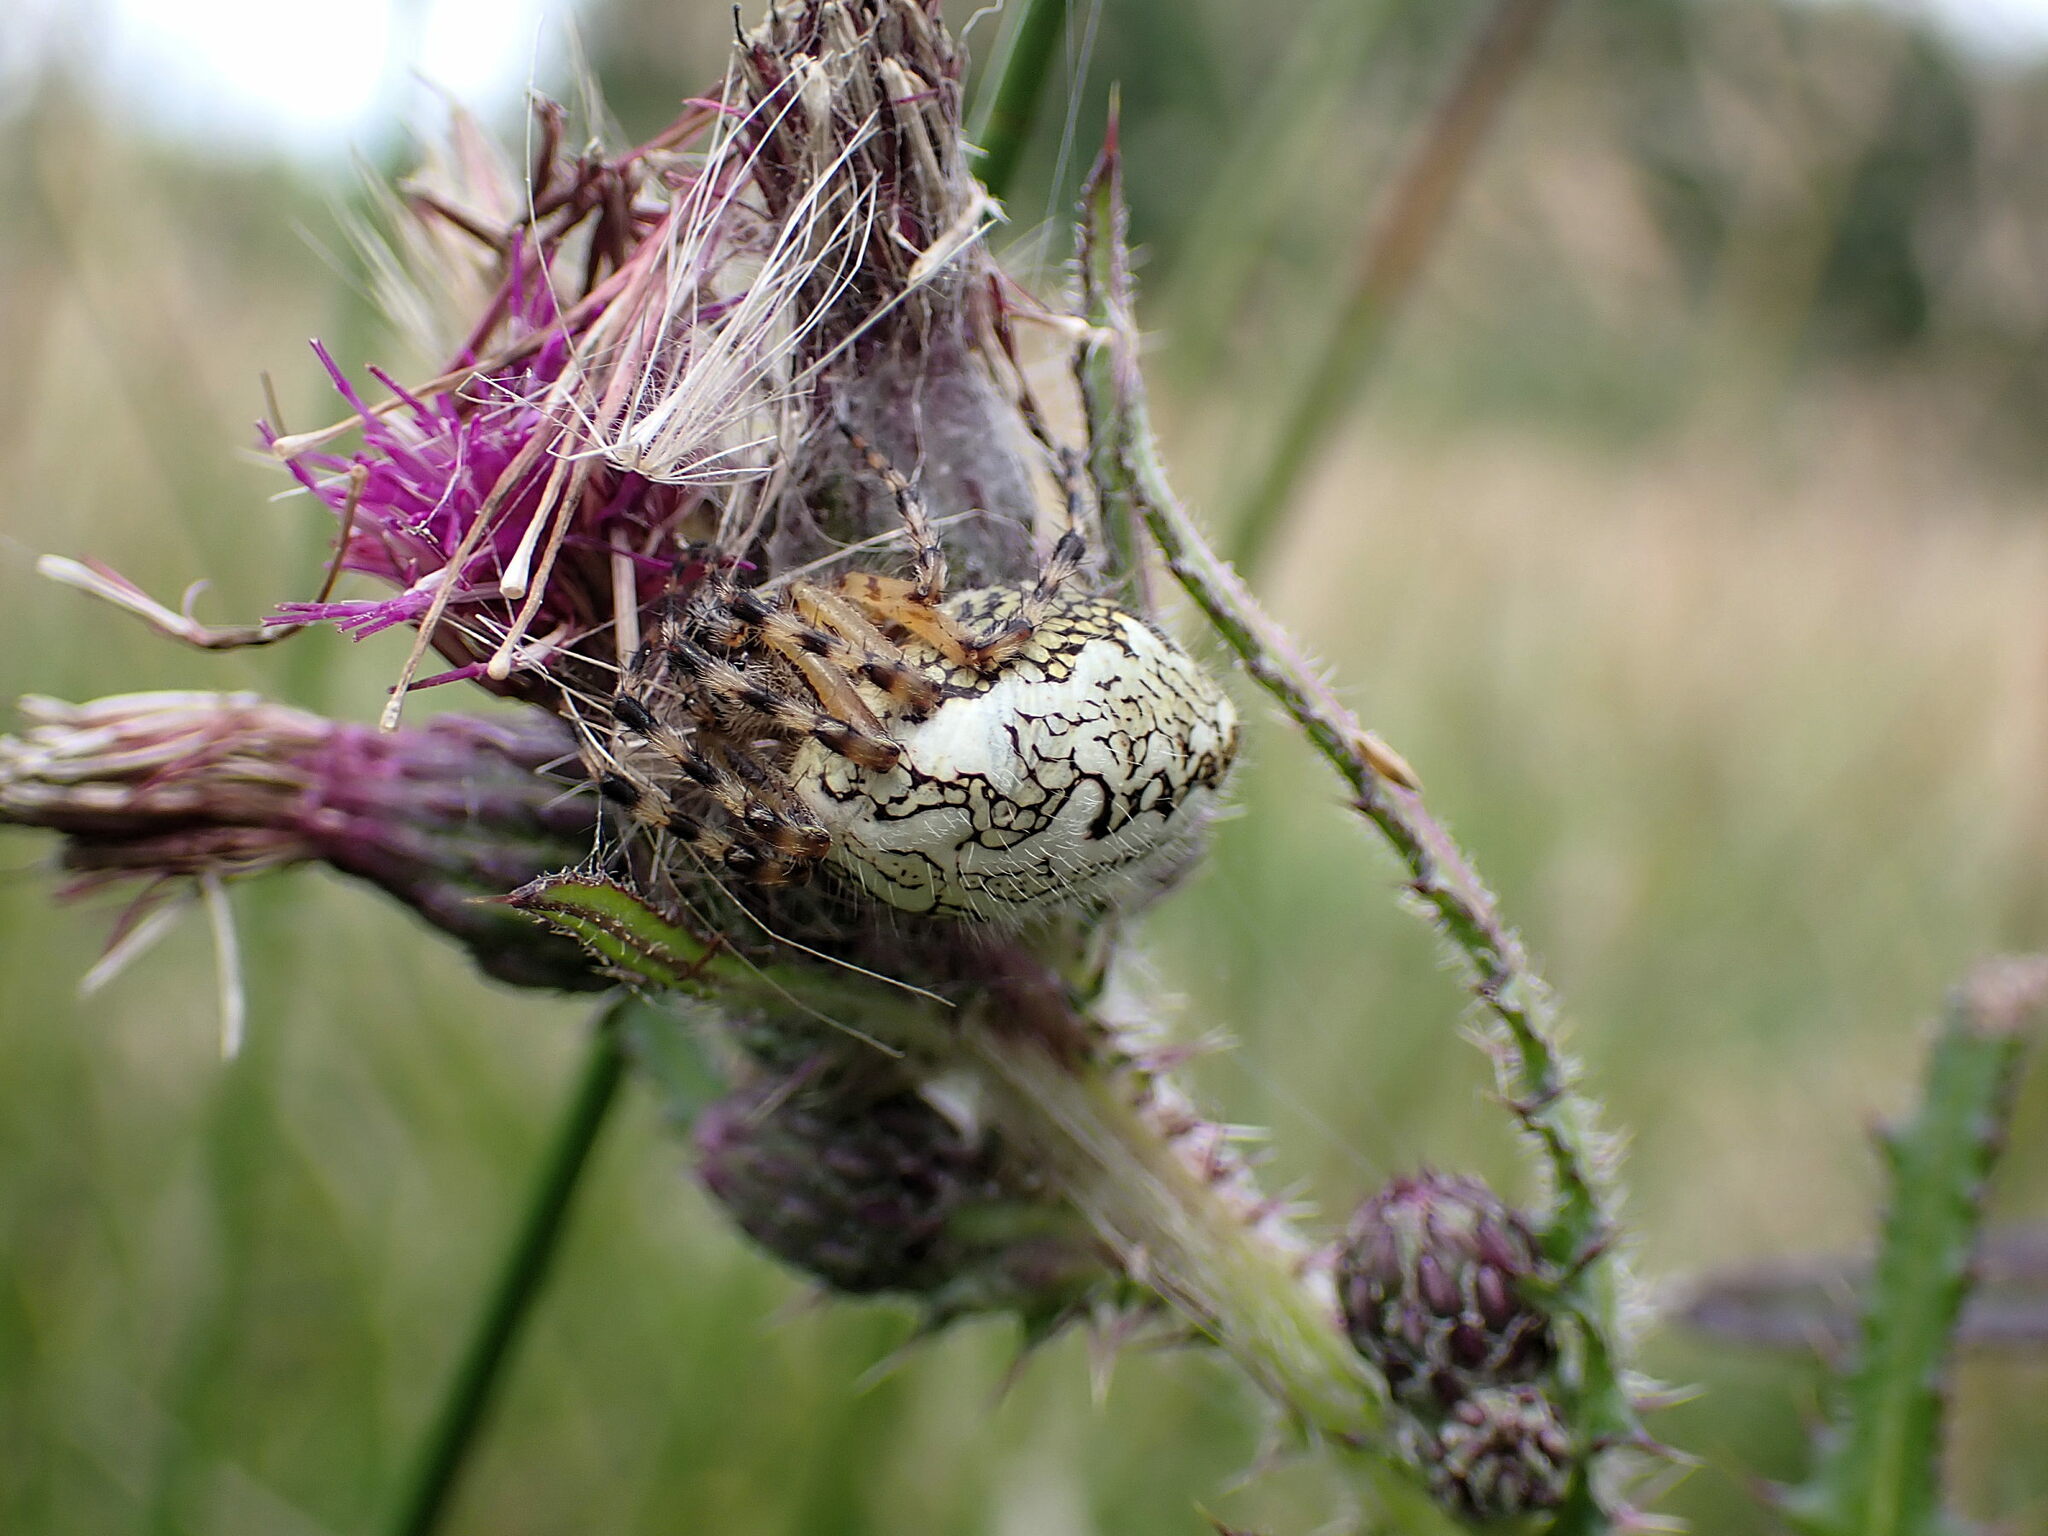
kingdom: Animalia
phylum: Arthropoda
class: Arachnida
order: Araneae
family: Araneidae
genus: Aculepeira
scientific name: Aculepeira ceropegia
